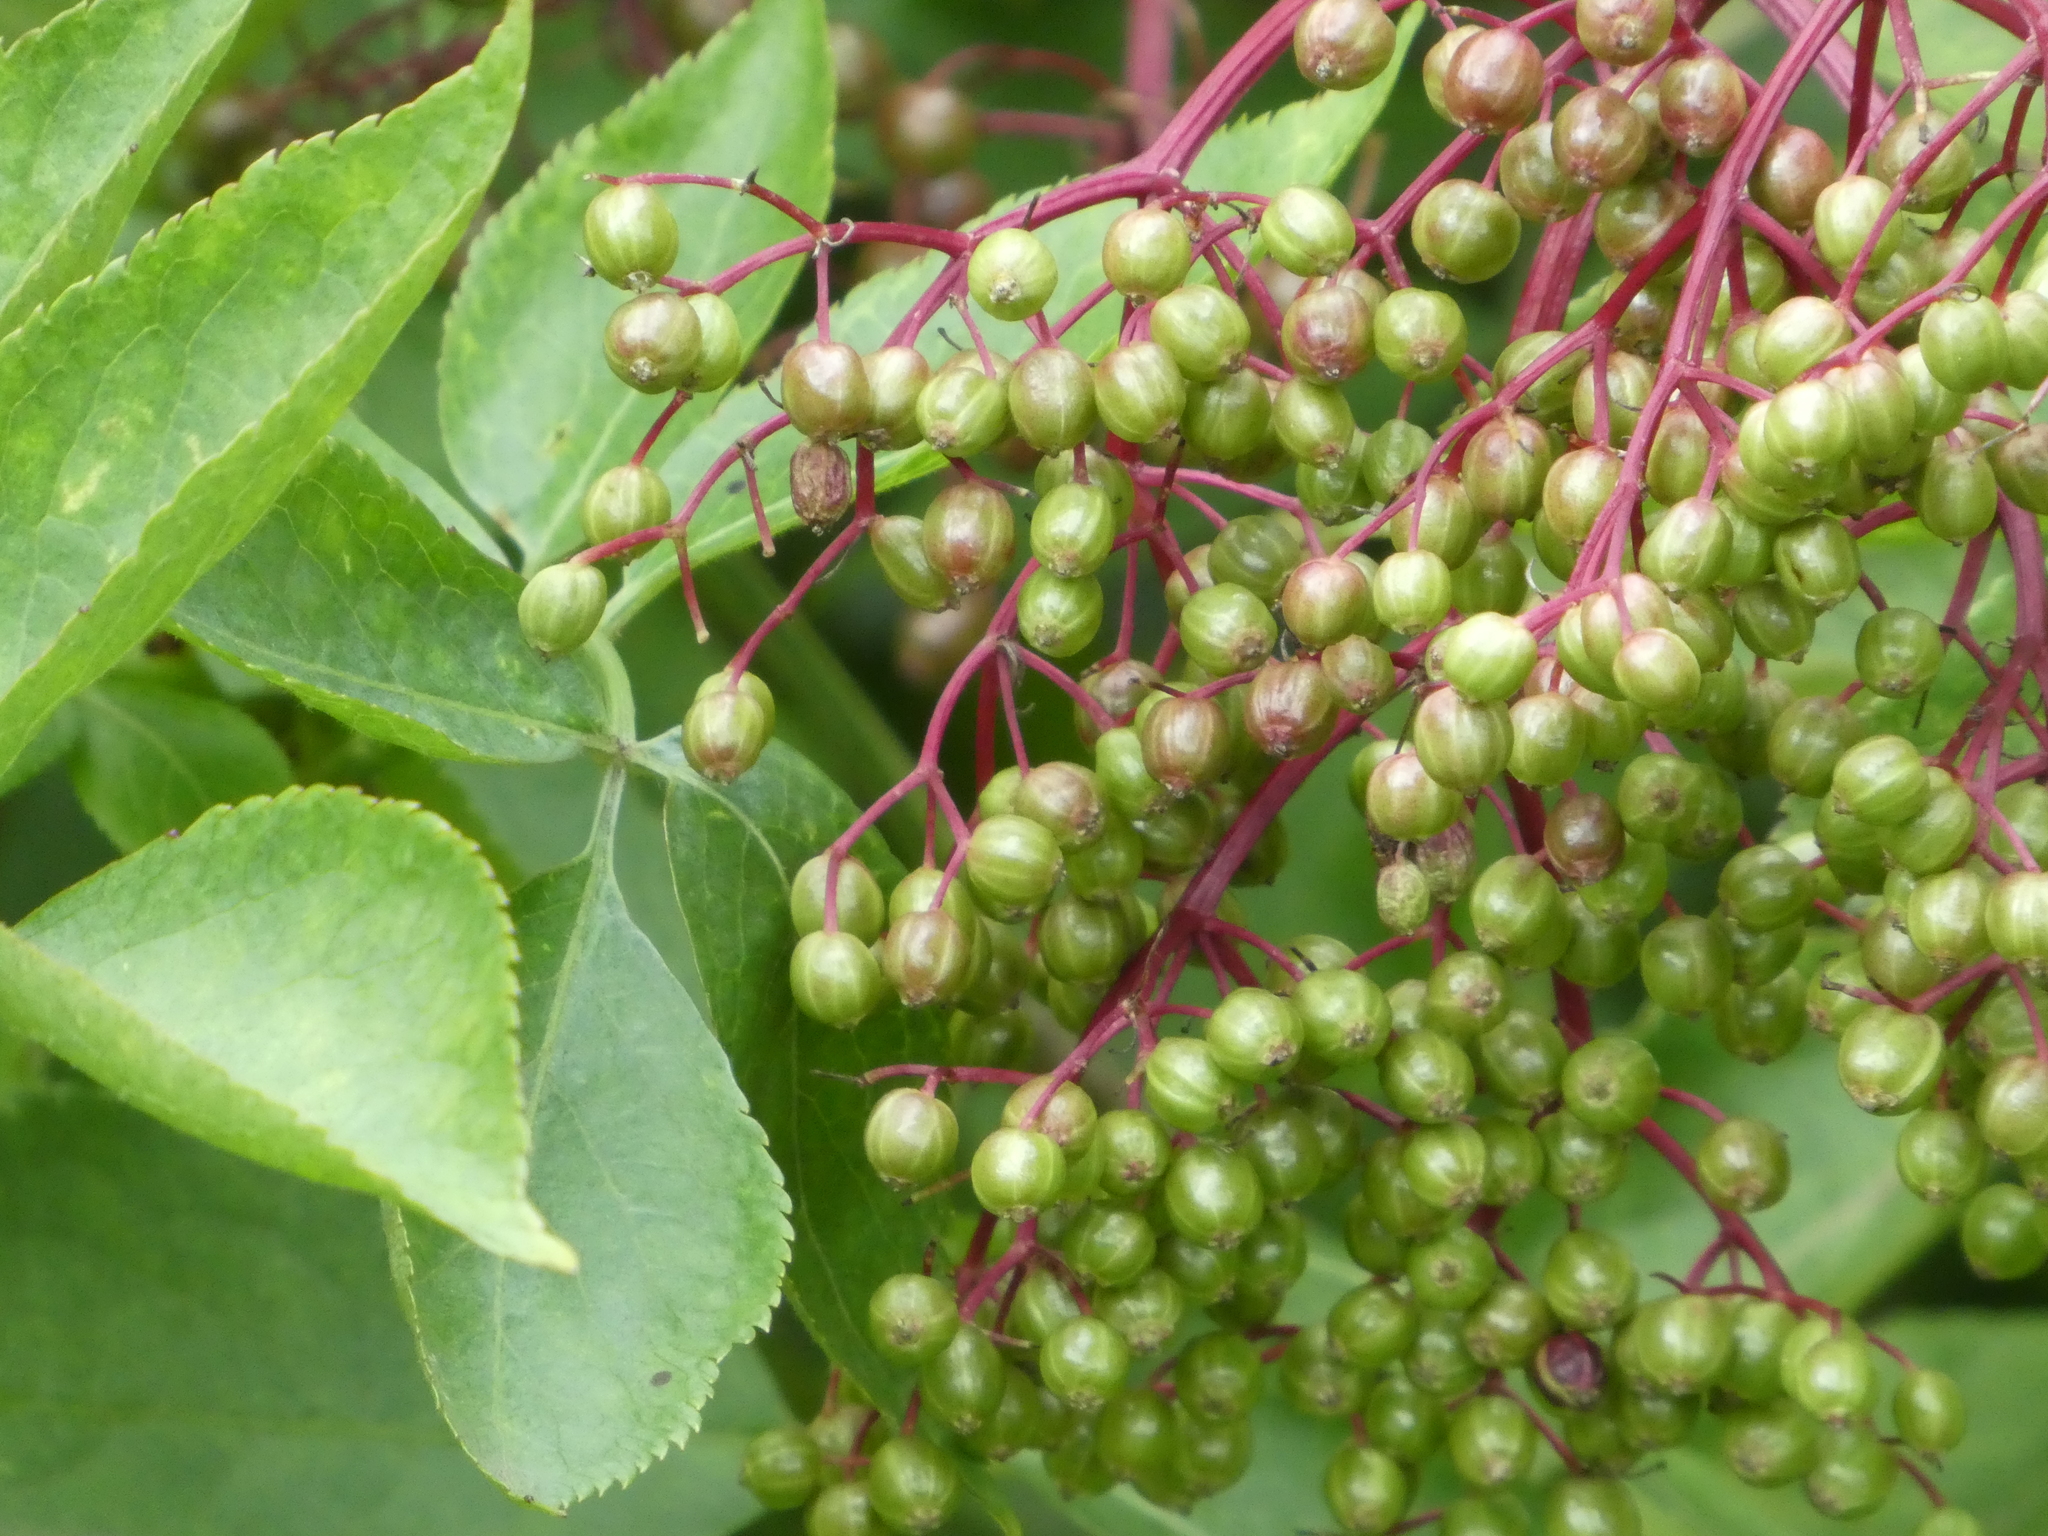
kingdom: Plantae
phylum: Tracheophyta
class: Magnoliopsida
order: Dipsacales
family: Viburnaceae
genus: Sambucus
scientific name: Sambucus nigra
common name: Elder
